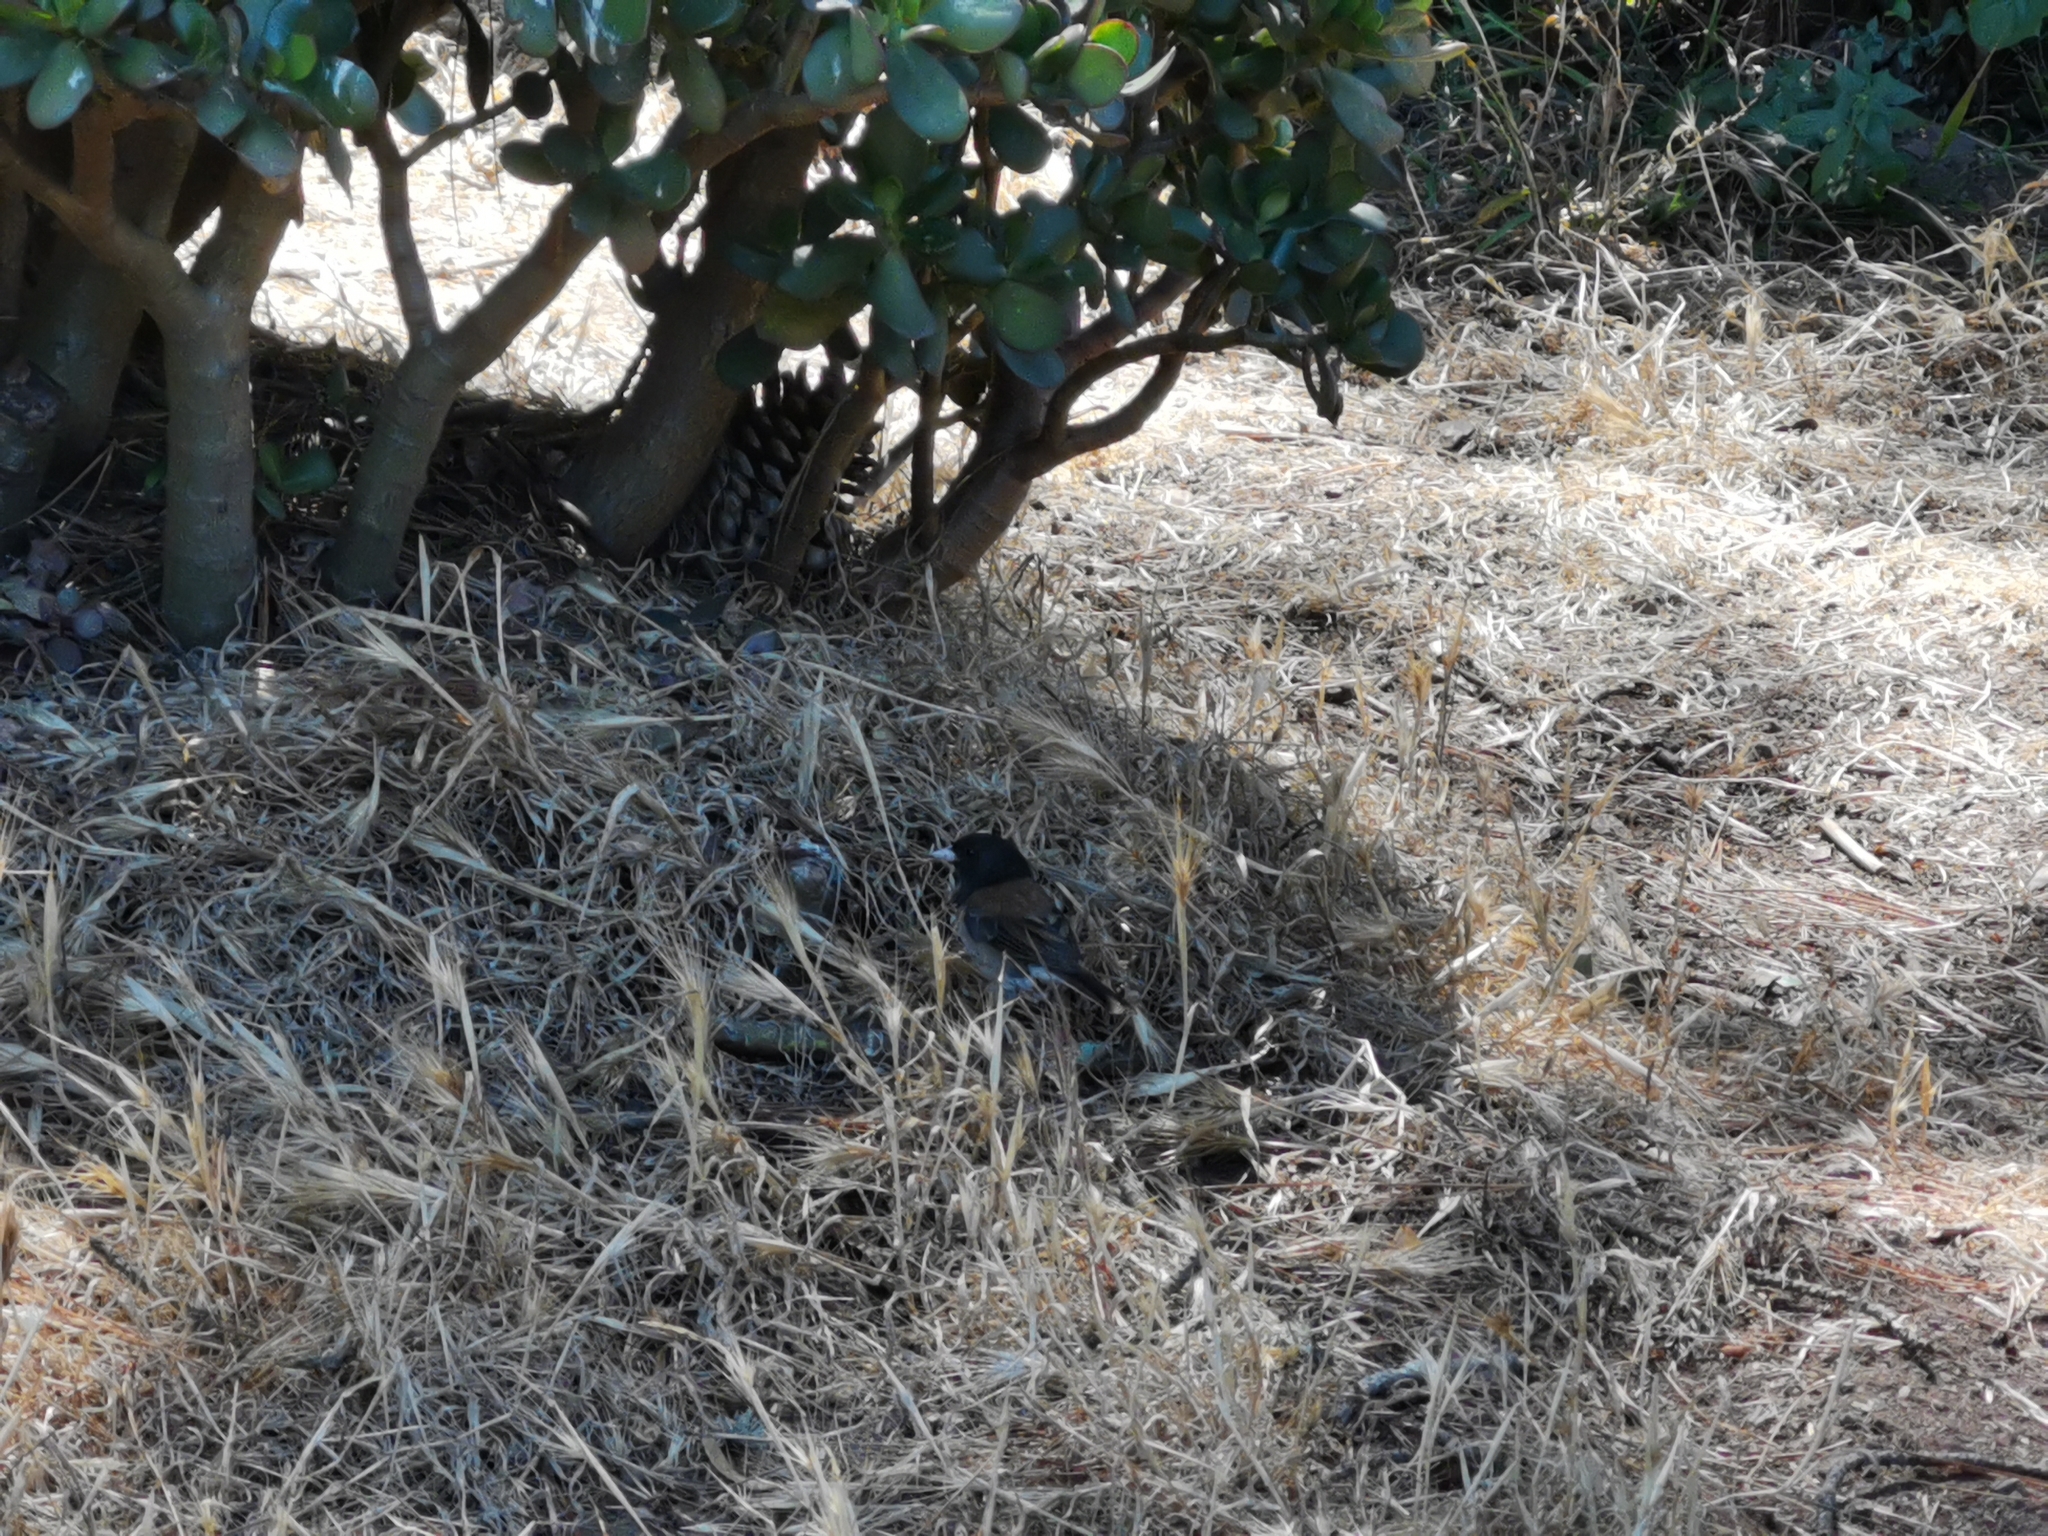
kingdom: Animalia
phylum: Chordata
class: Aves
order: Passeriformes
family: Passerellidae
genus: Junco
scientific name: Junco hyemalis
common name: Dark-eyed junco
